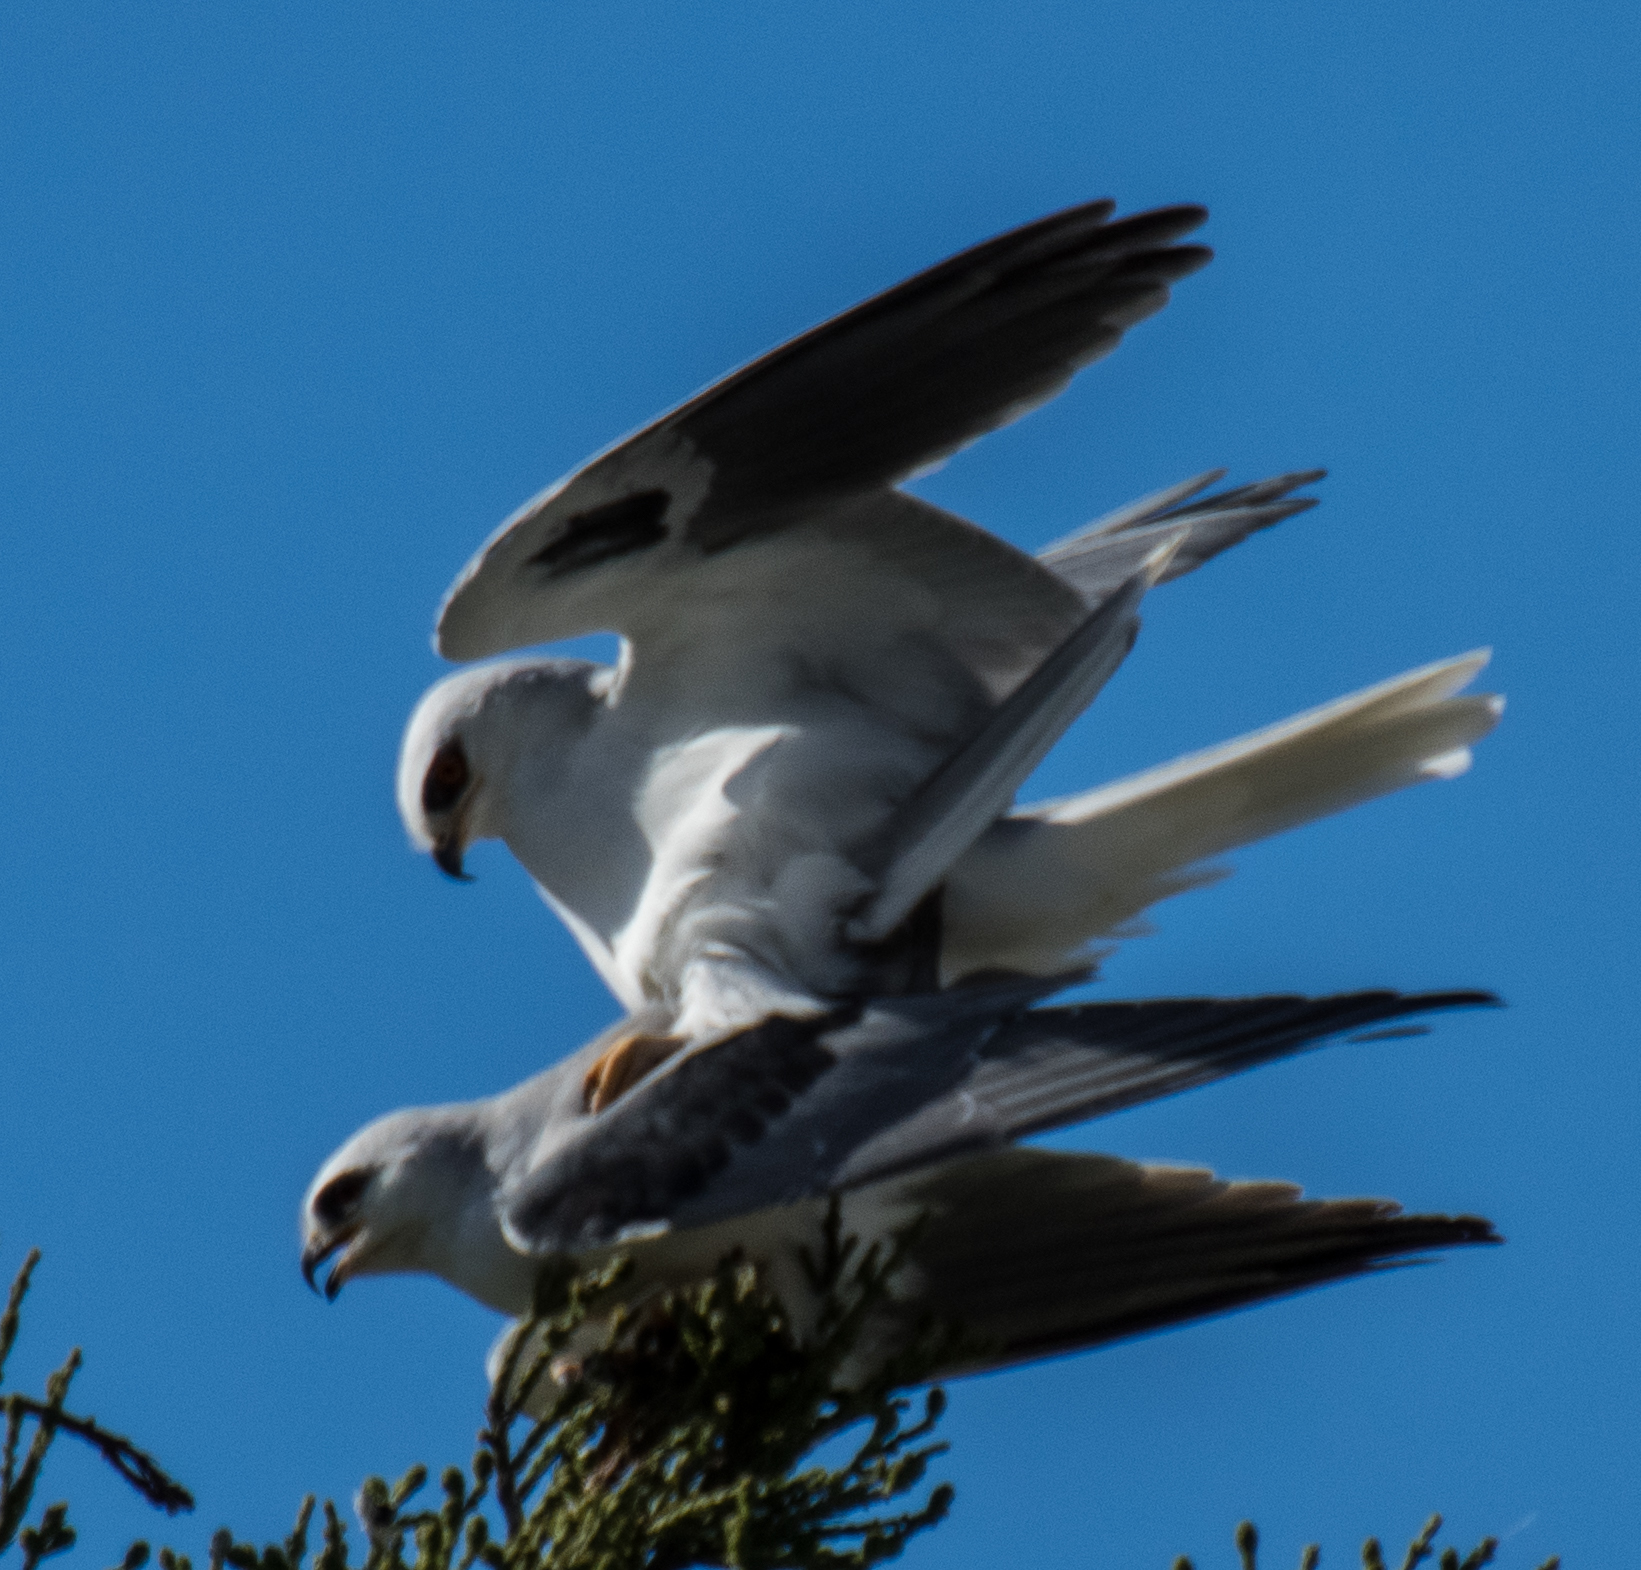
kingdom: Animalia
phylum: Chordata
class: Aves
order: Accipitriformes
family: Accipitridae
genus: Elanus
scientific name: Elanus leucurus
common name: White-tailed kite
